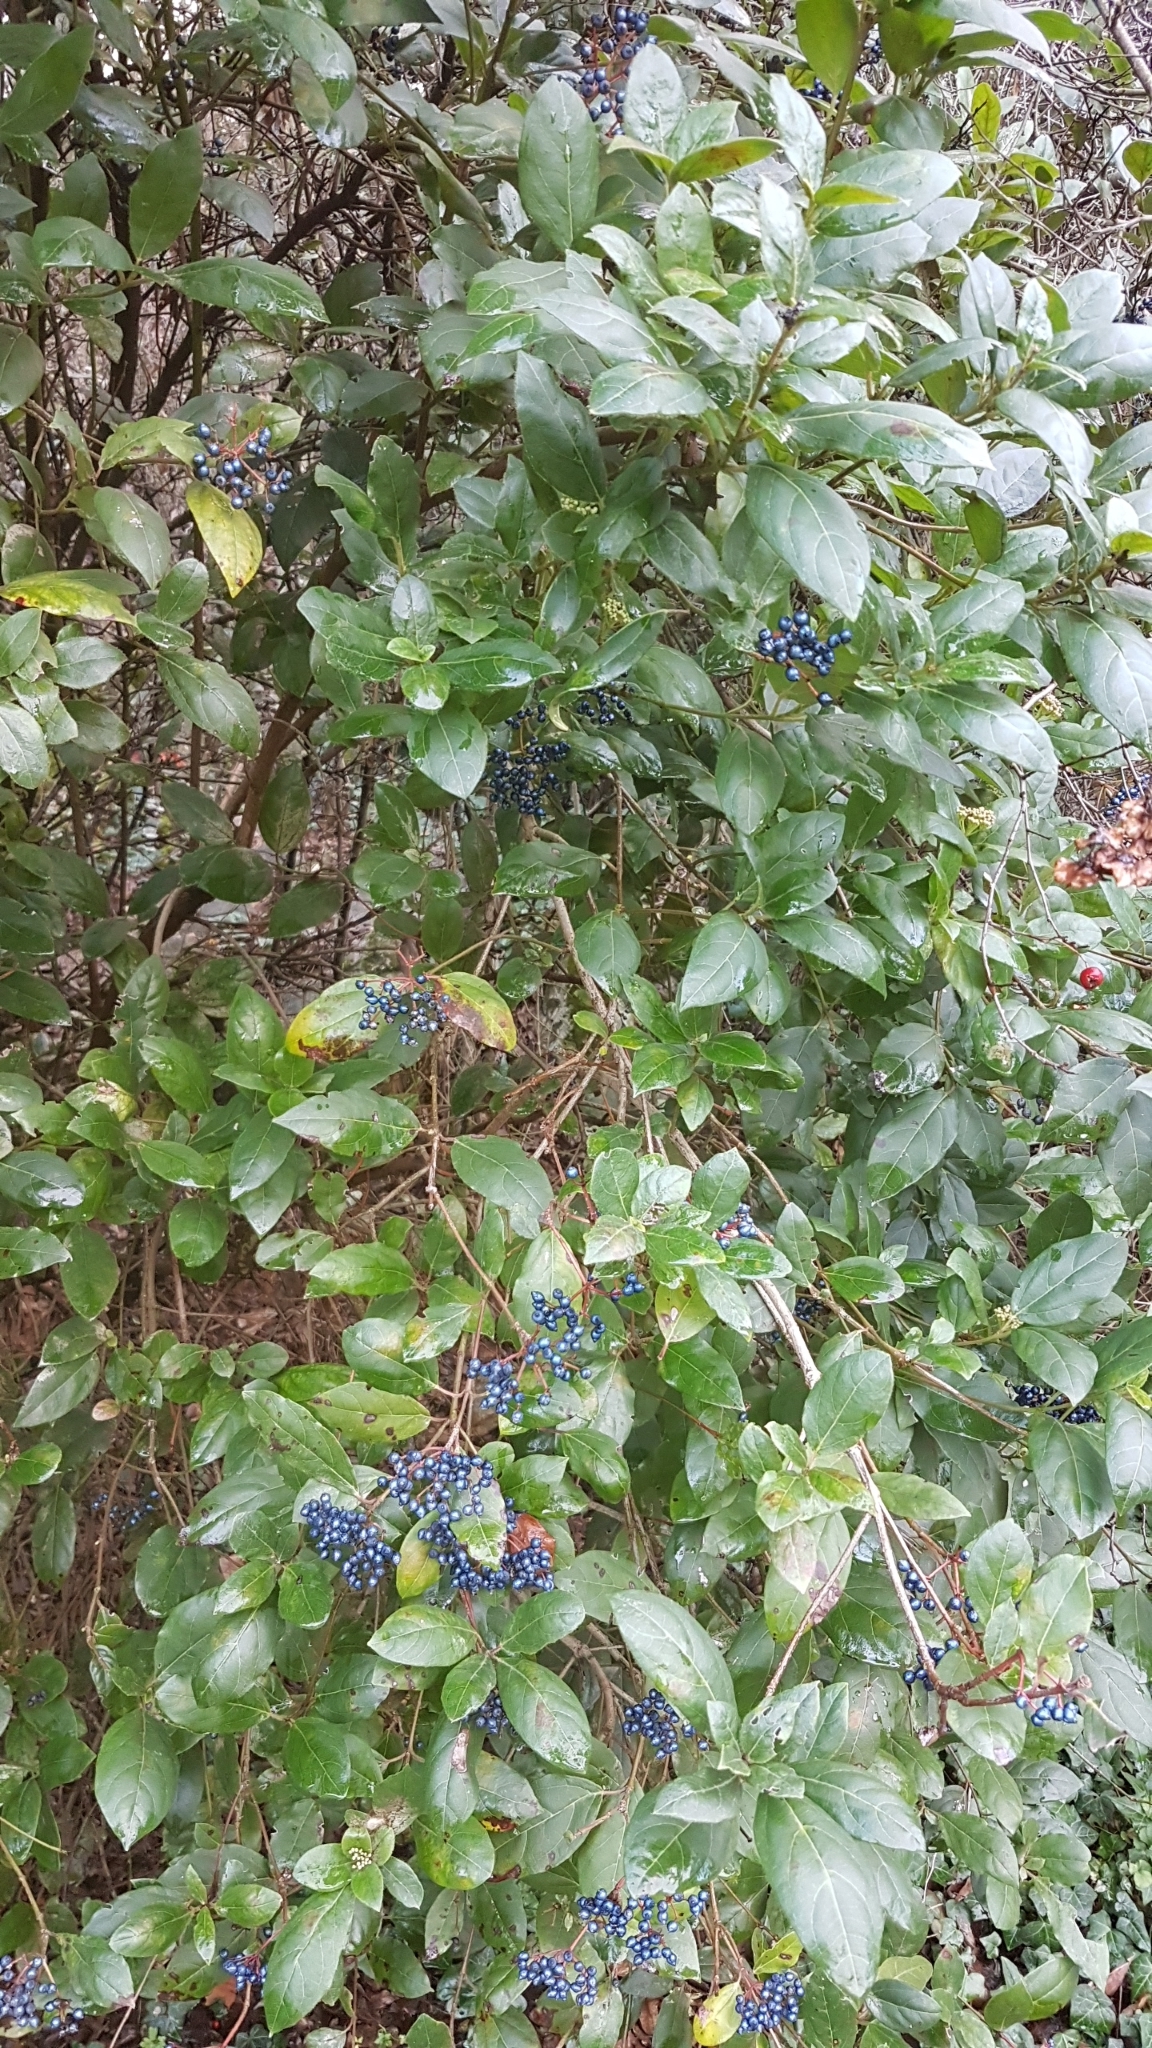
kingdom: Plantae
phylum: Tracheophyta
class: Magnoliopsida
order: Dipsacales
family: Viburnaceae
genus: Viburnum
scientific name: Viburnum tinus
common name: Laurustinus
